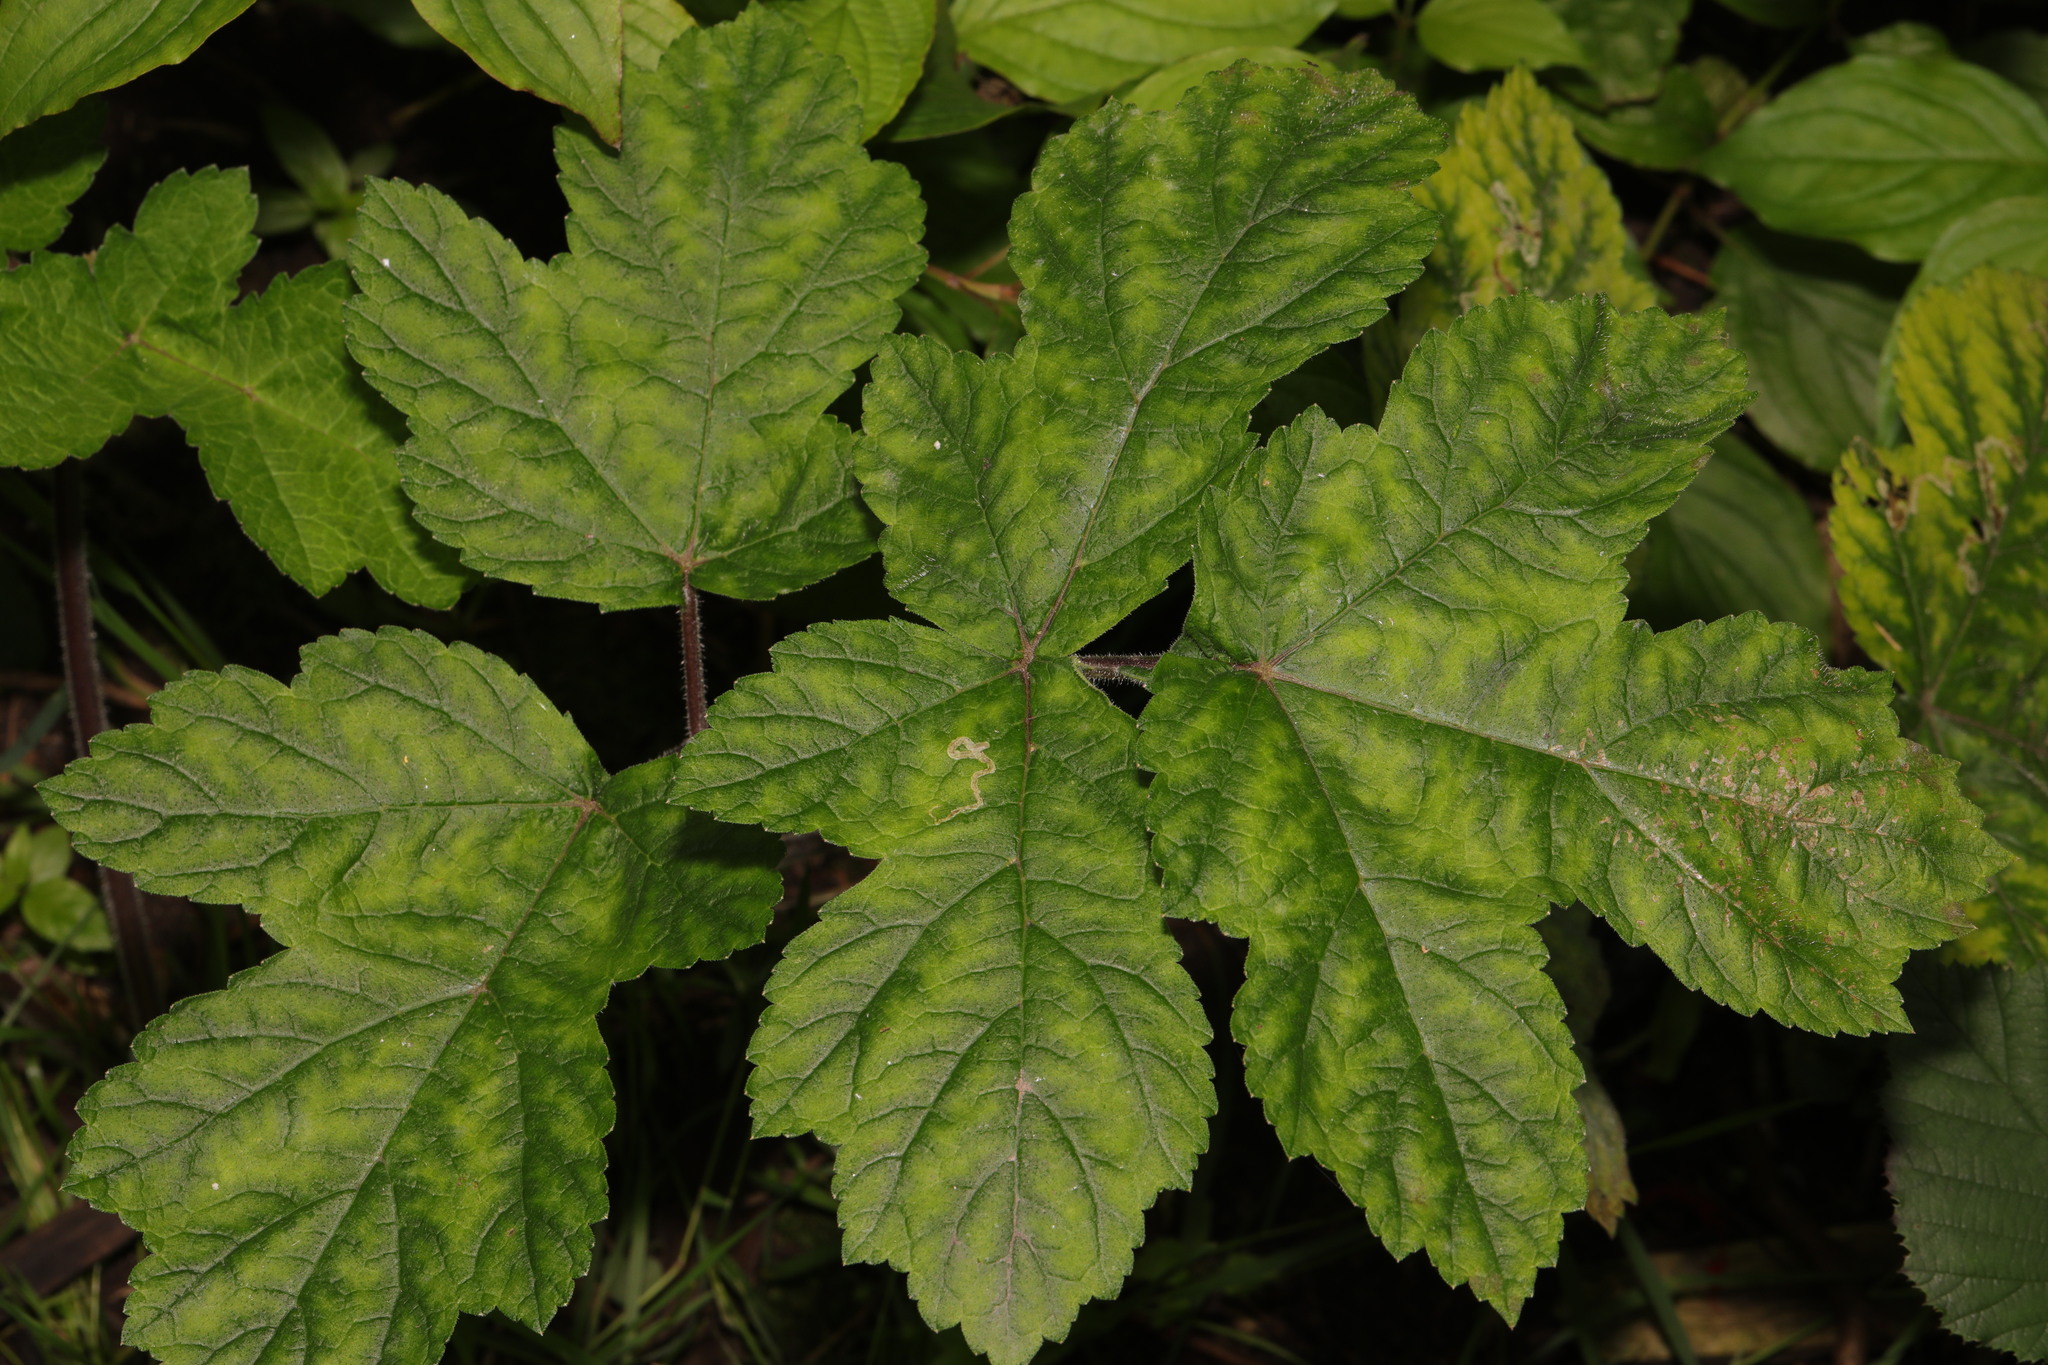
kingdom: Plantae
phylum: Tracheophyta
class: Magnoliopsida
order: Apiales
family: Apiaceae
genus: Heracleum
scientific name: Heracleum sphondylium
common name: Hogweed
